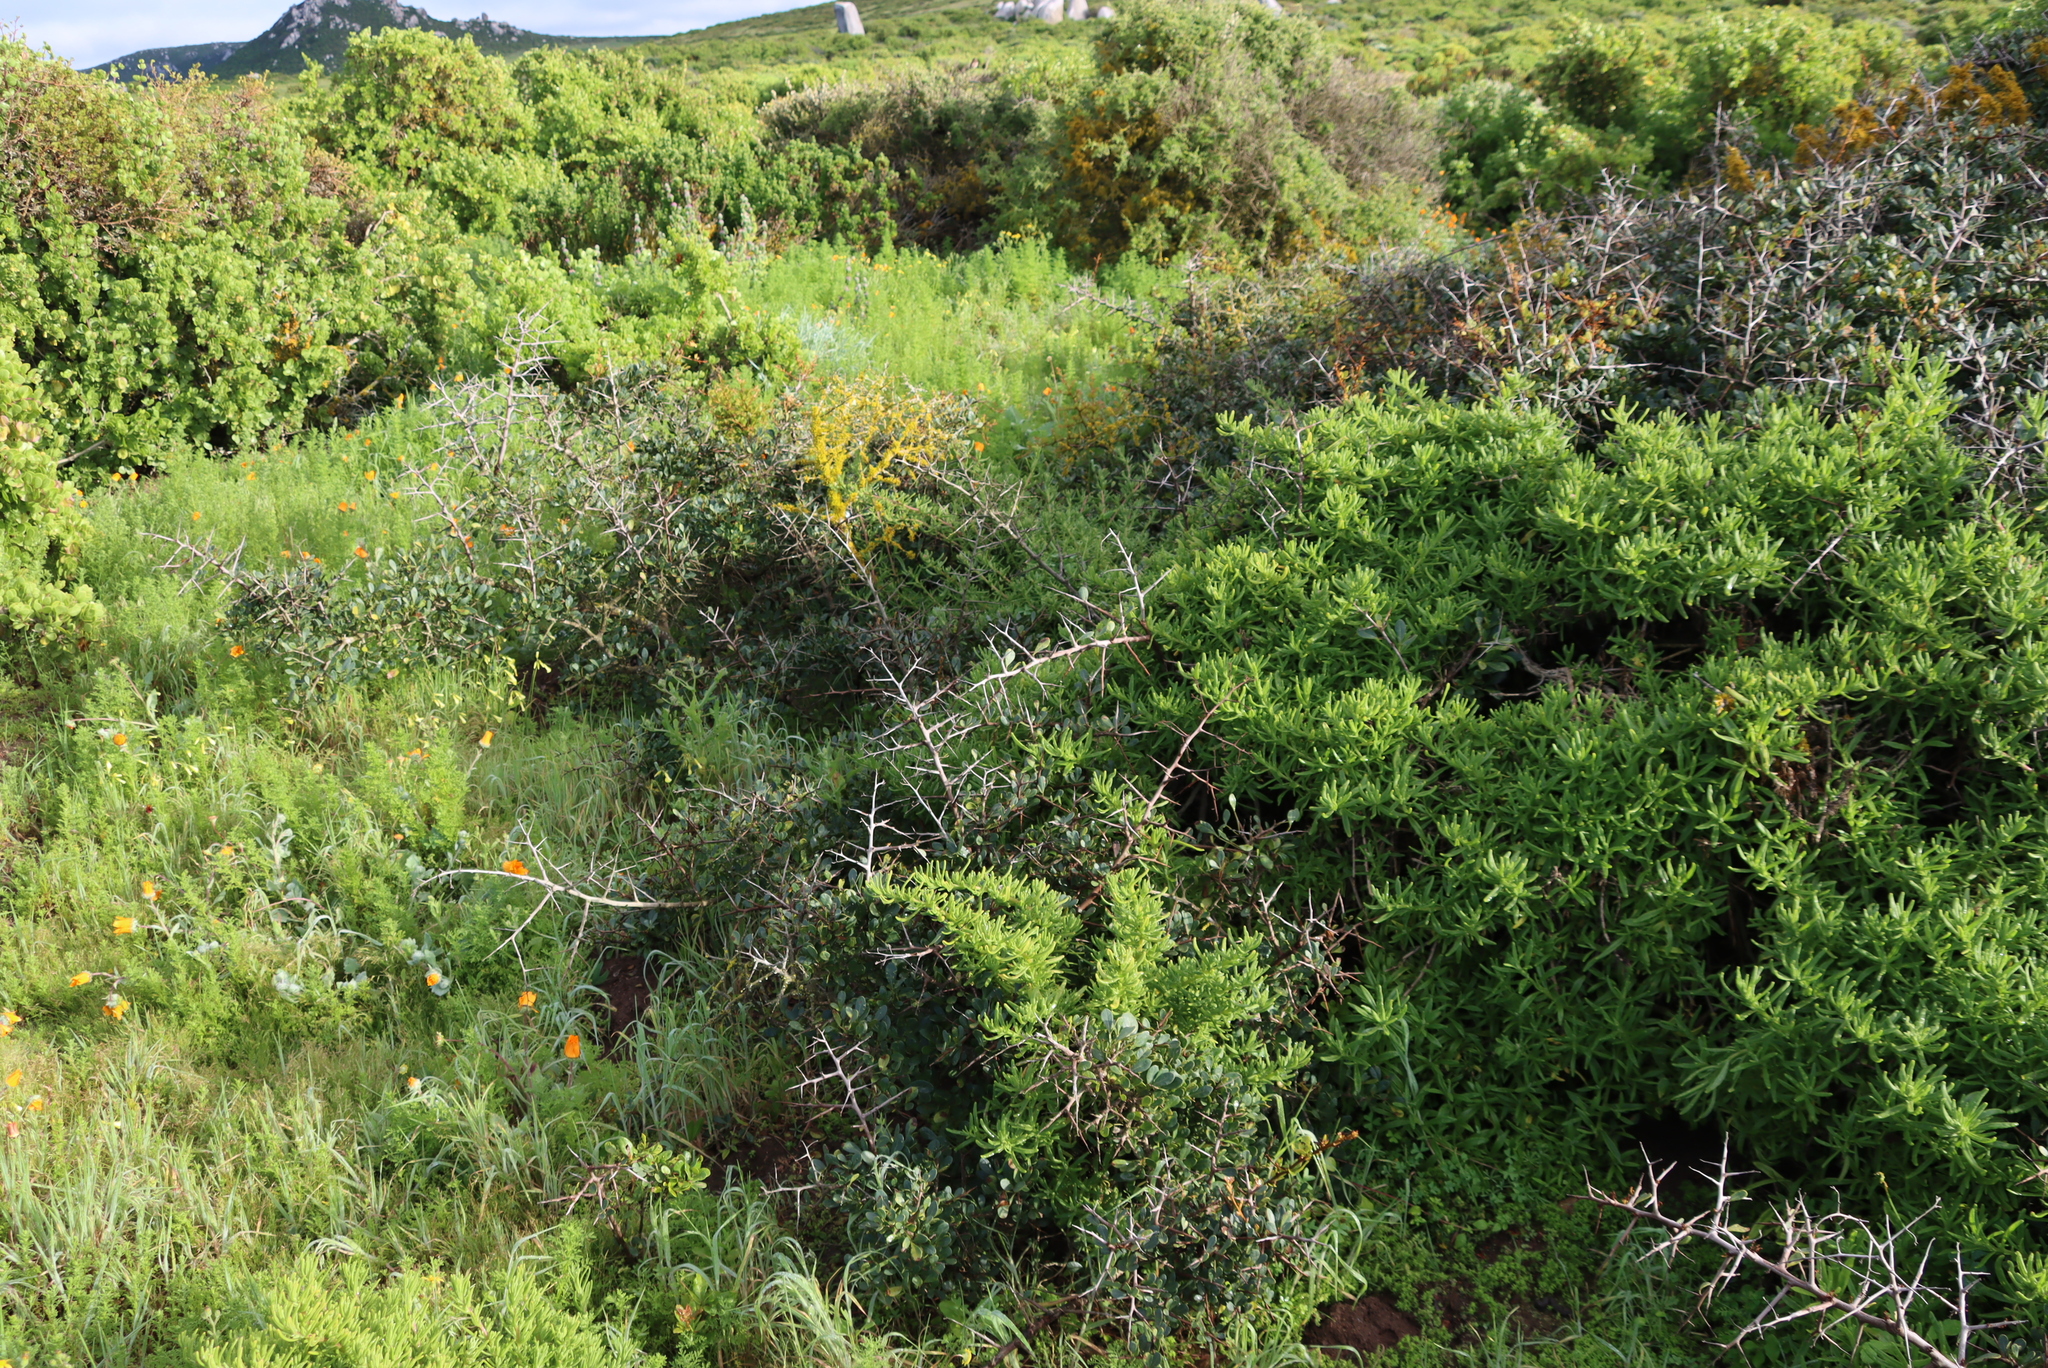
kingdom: Plantae
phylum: Tracheophyta
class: Magnoliopsida
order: Celastrales
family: Celastraceae
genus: Putterlickia
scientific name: Putterlickia pyracantha
